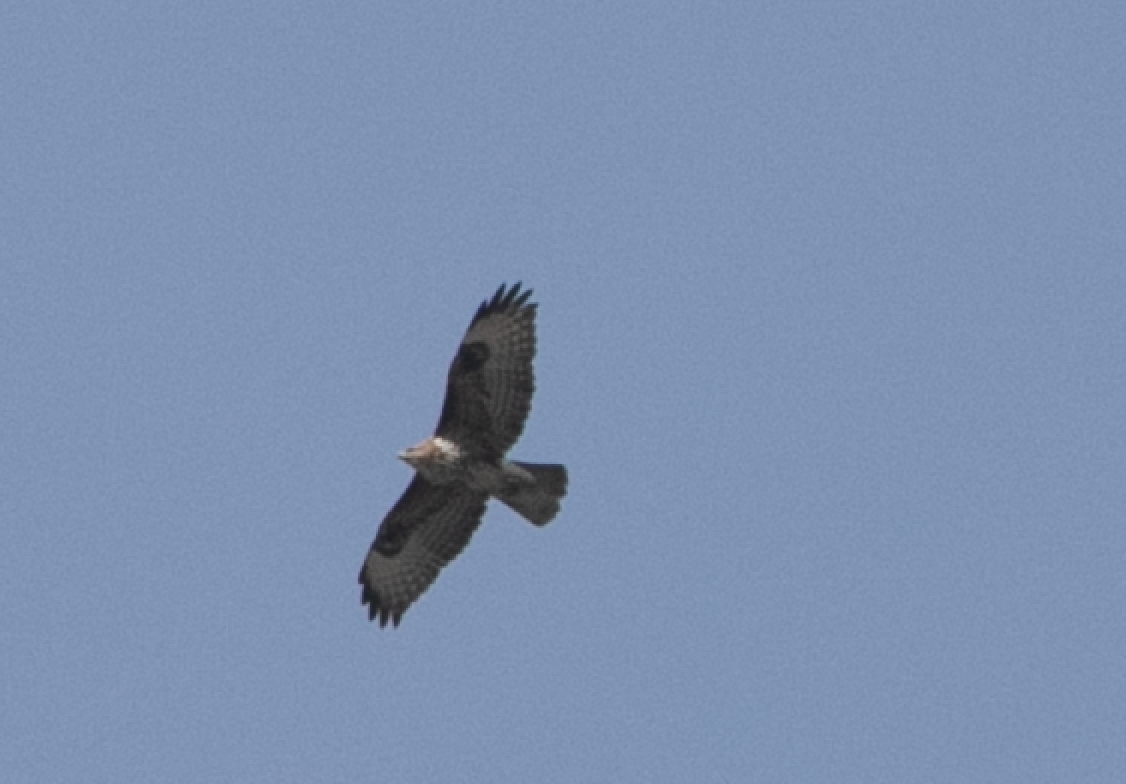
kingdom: Animalia
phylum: Chordata
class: Aves
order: Accipitriformes
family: Accipitridae
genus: Buteo
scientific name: Buteo buteo
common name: Common buzzard
